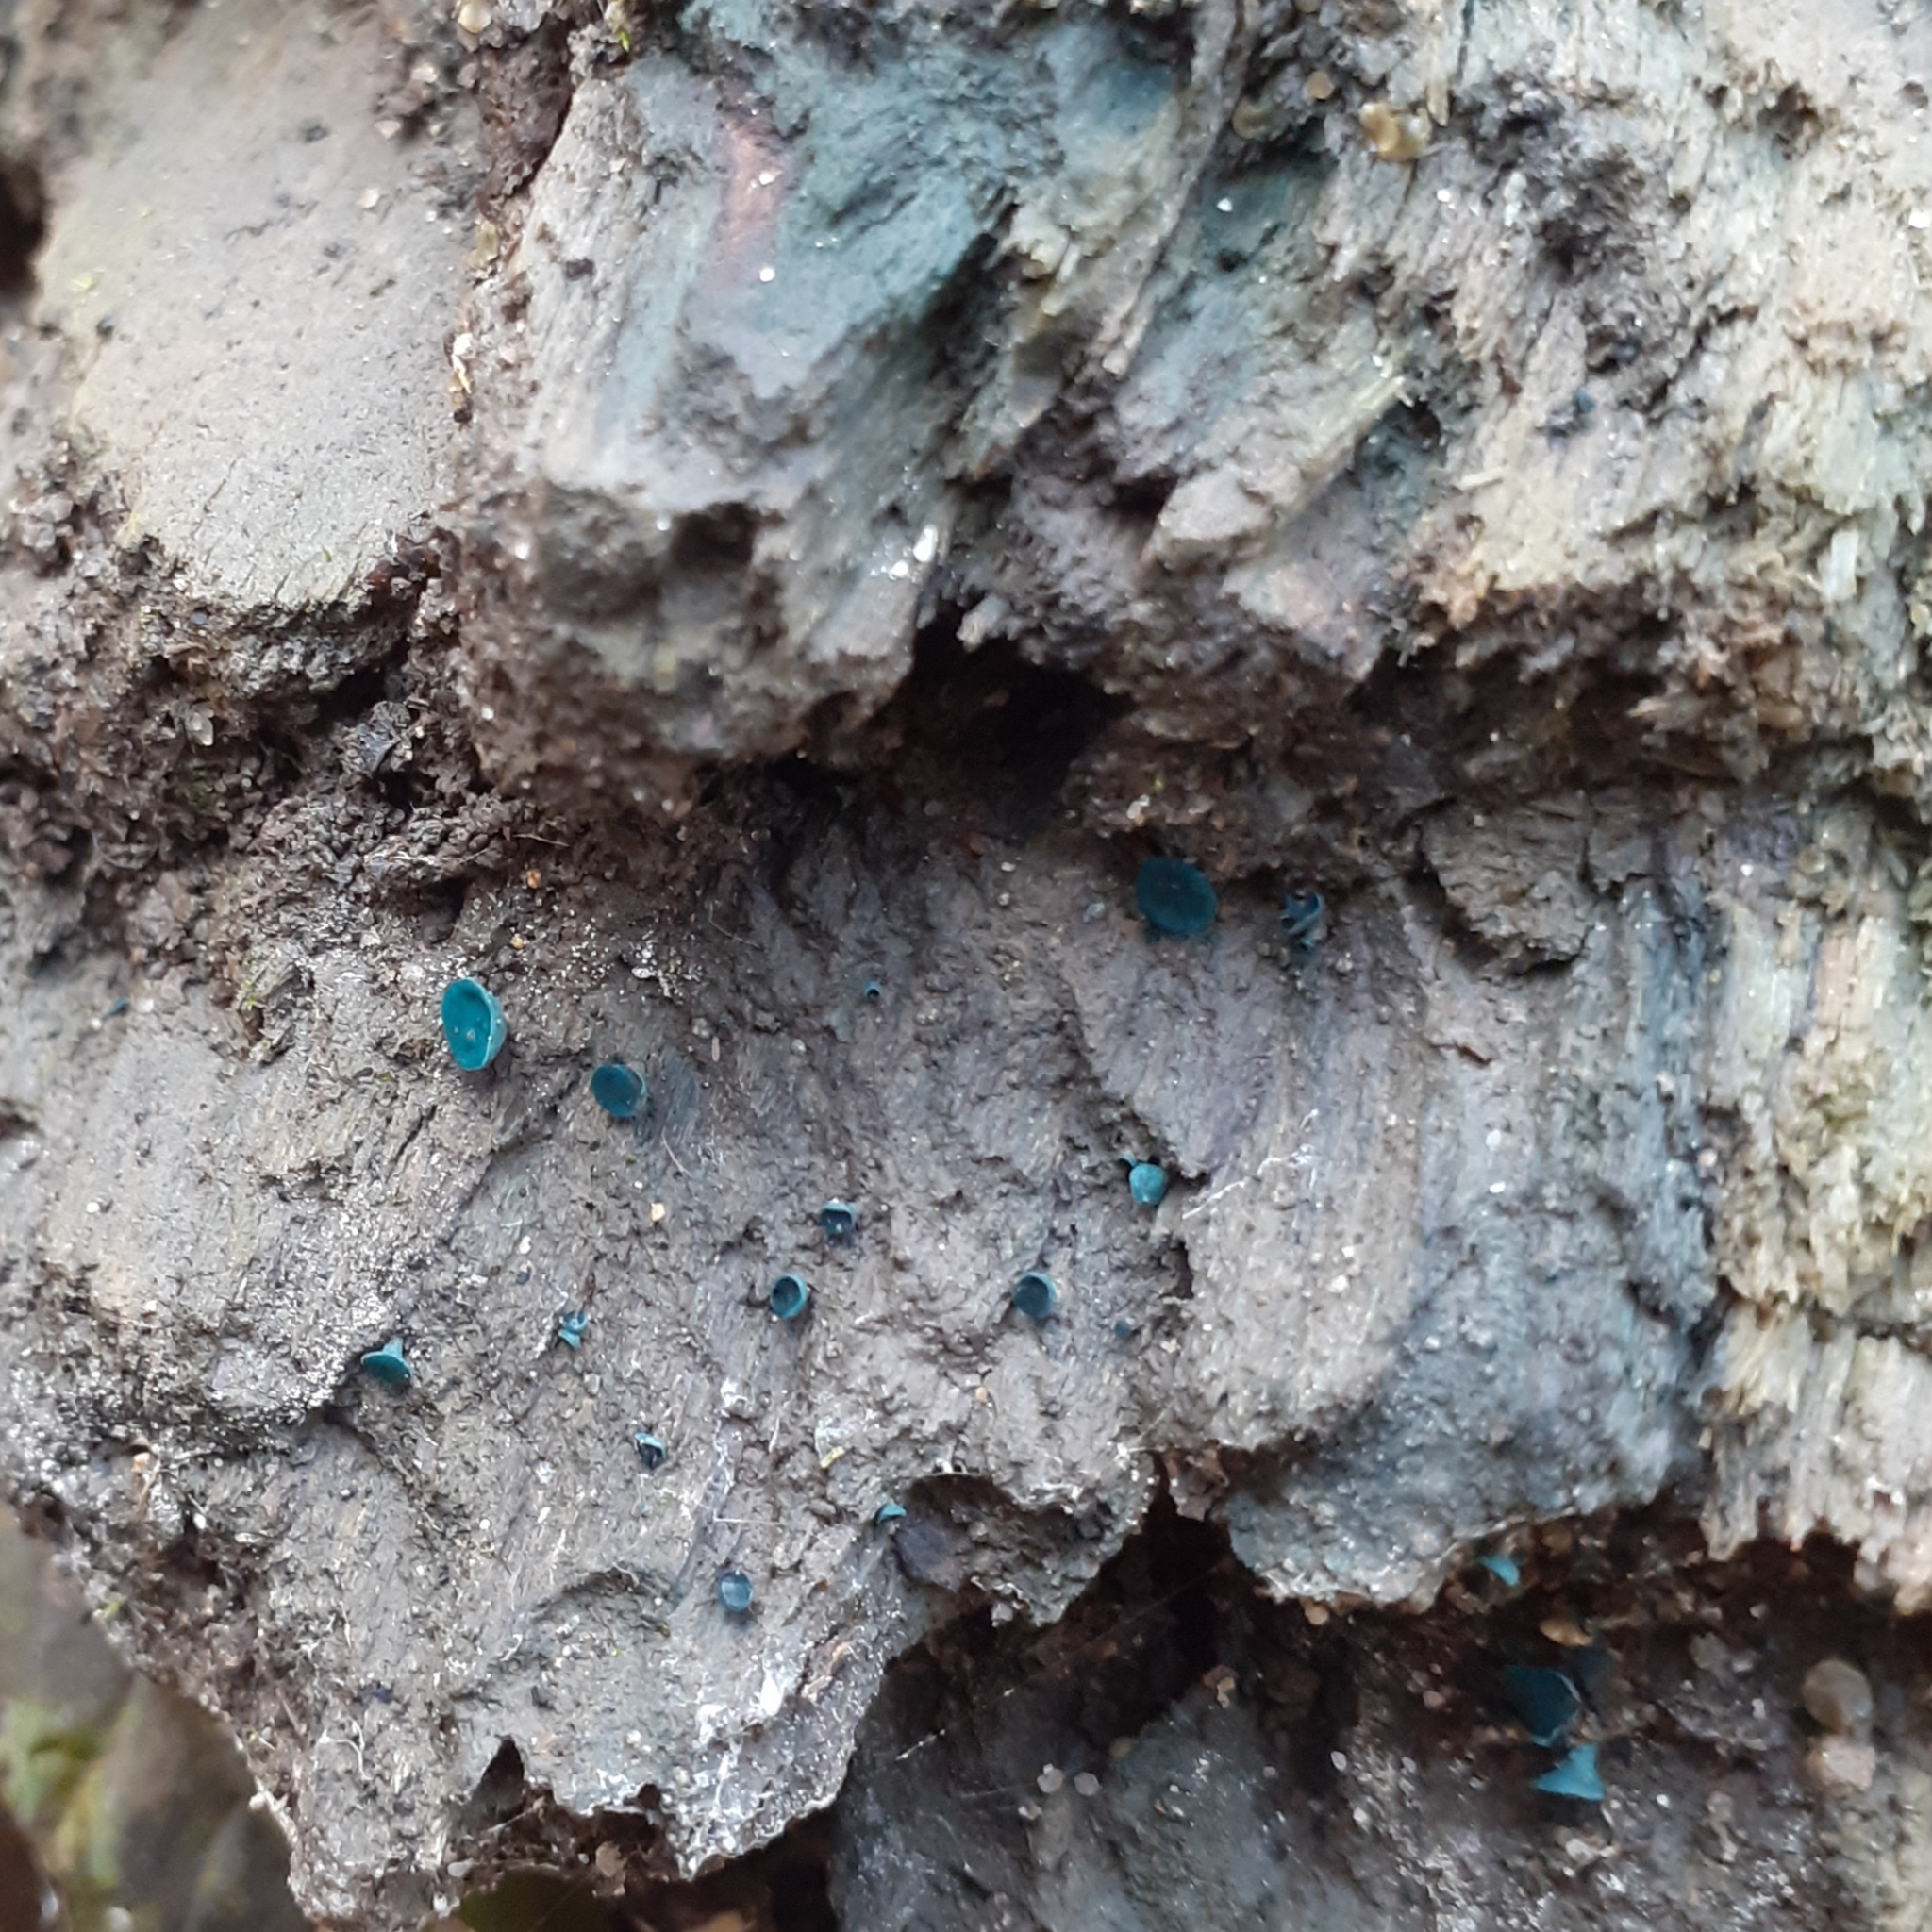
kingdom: Fungi
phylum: Ascomycota
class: Leotiomycetes
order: Helotiales
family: Chlorociboriaceae
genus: Chlorociboria
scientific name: Chlorociboria aeruginascens
